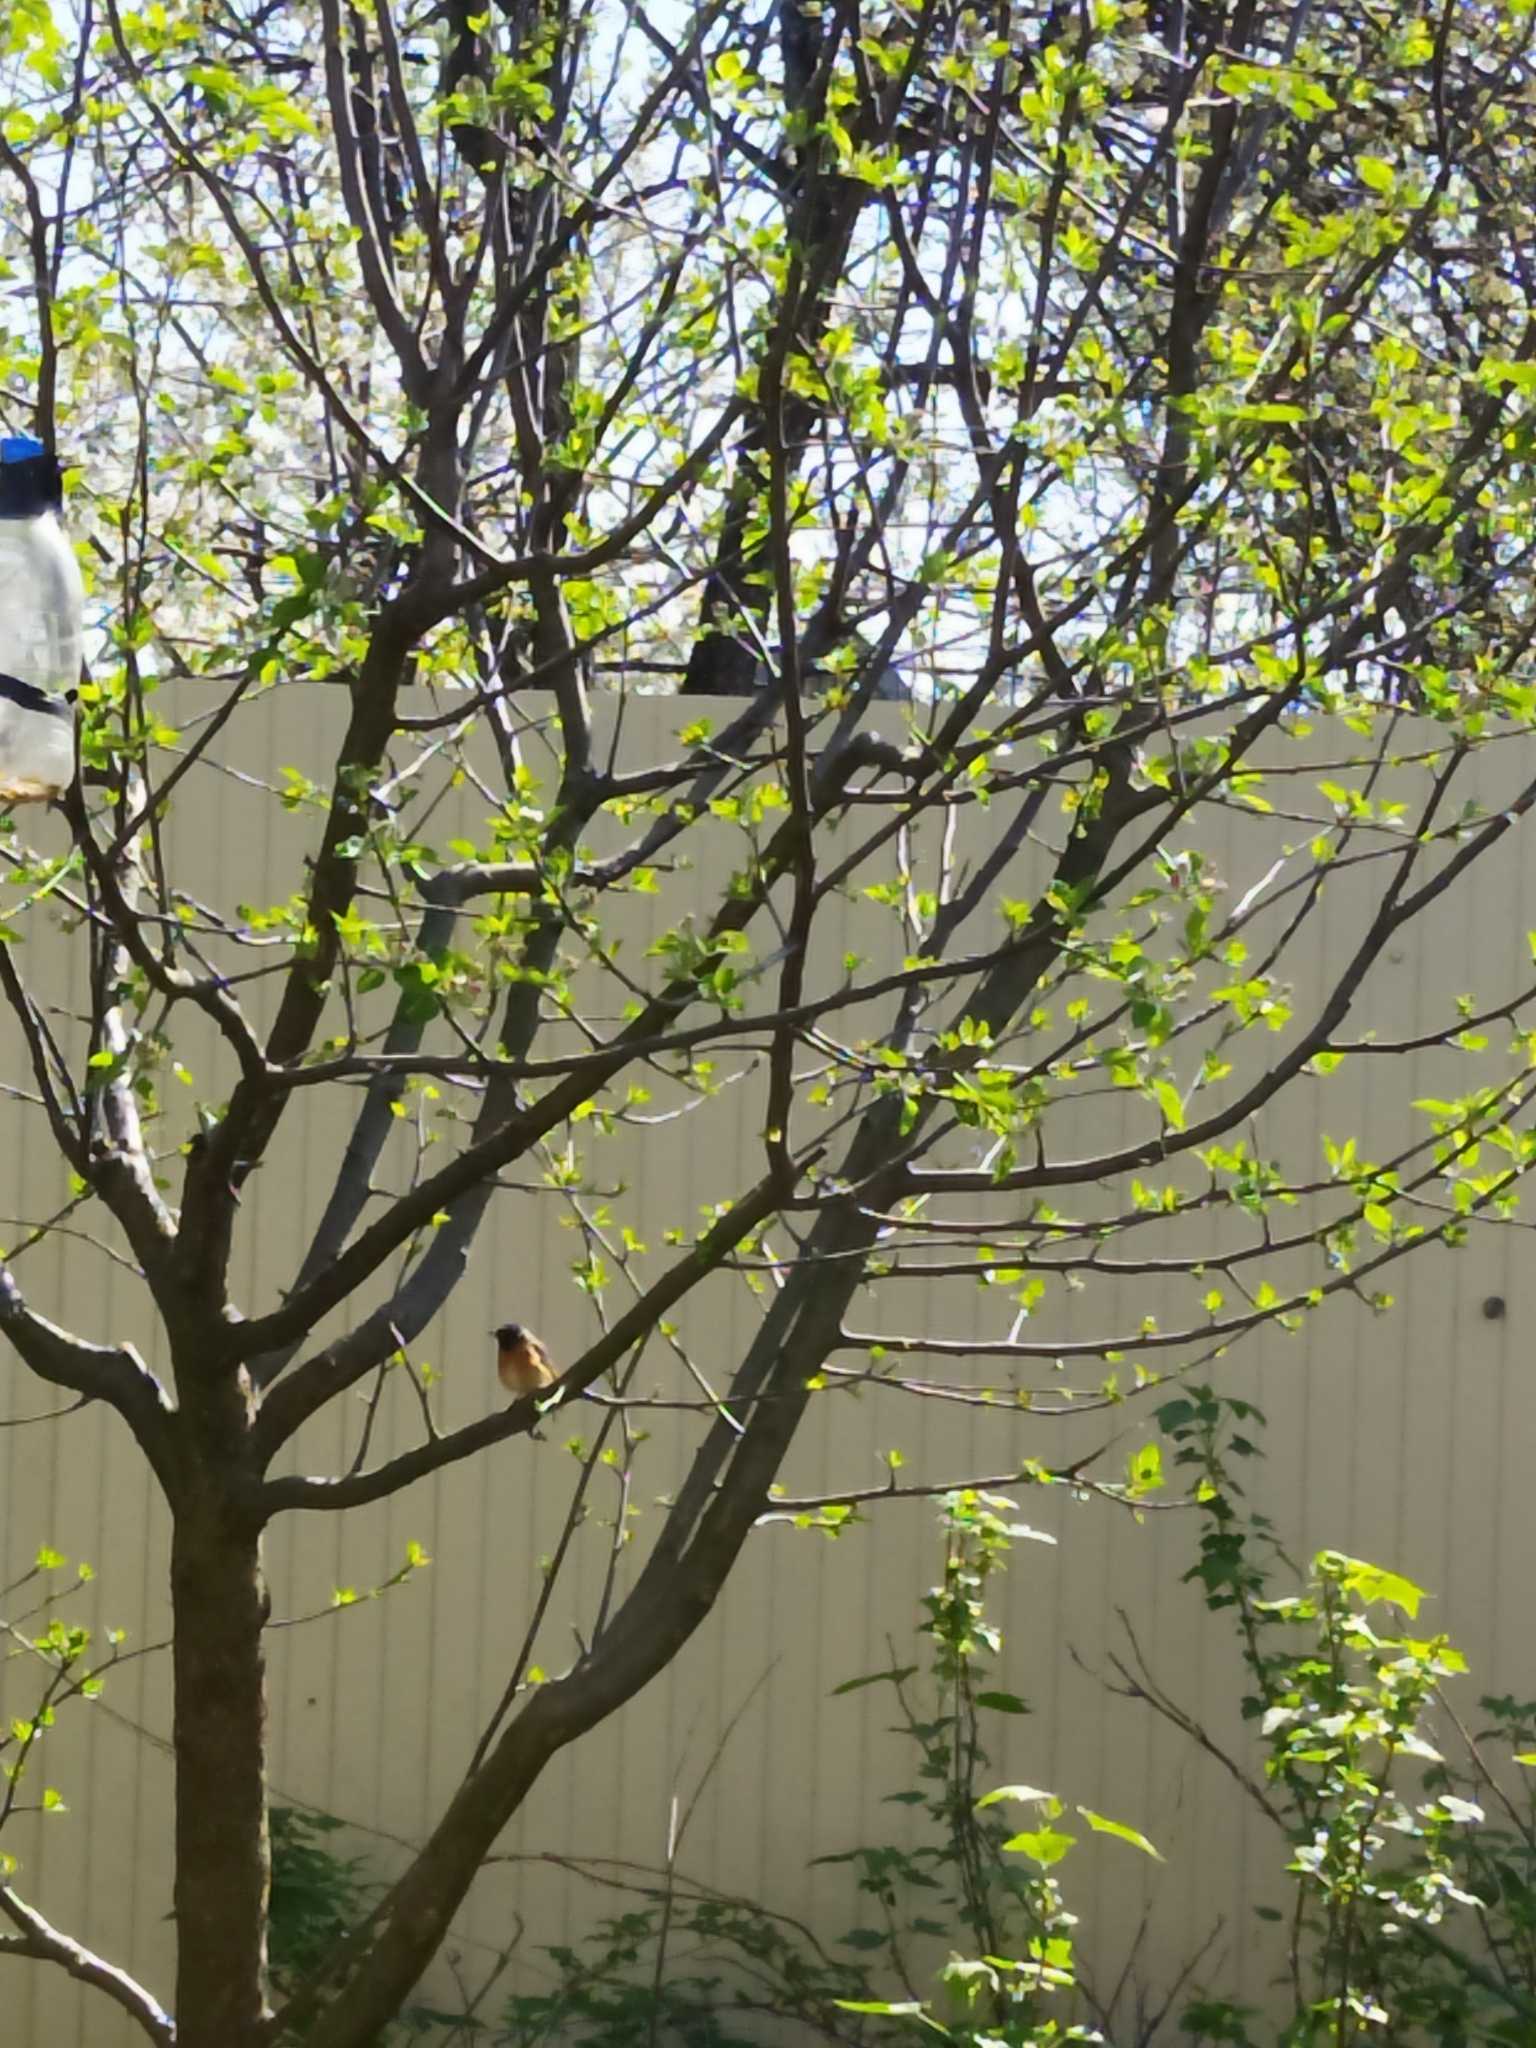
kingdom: Animalia
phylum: Chordata
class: Aves
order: Passeriformes
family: Muscicapidae
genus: Phoenicurus
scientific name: Phoenicurus phoenicurus
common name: Common redstart
